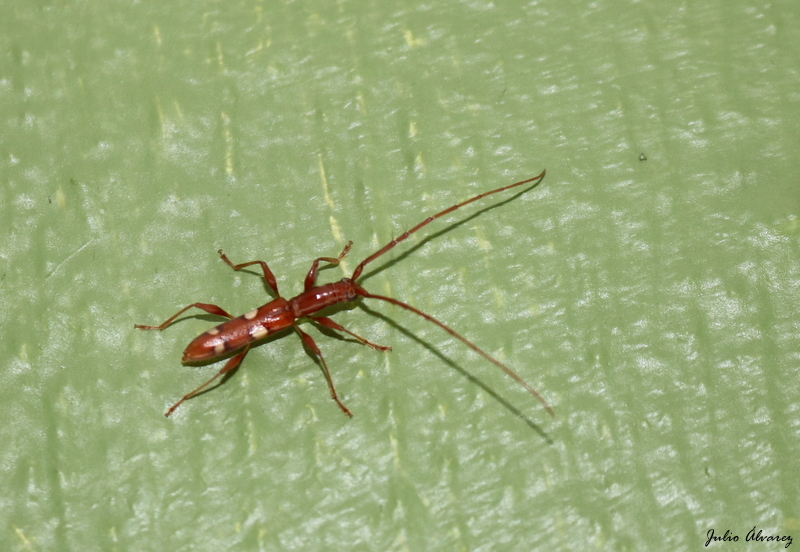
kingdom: Animalia
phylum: Arthropoda
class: Insecta
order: Coleoptera
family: Cerambycidae
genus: Neocompsa
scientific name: Neocompsa alacris
